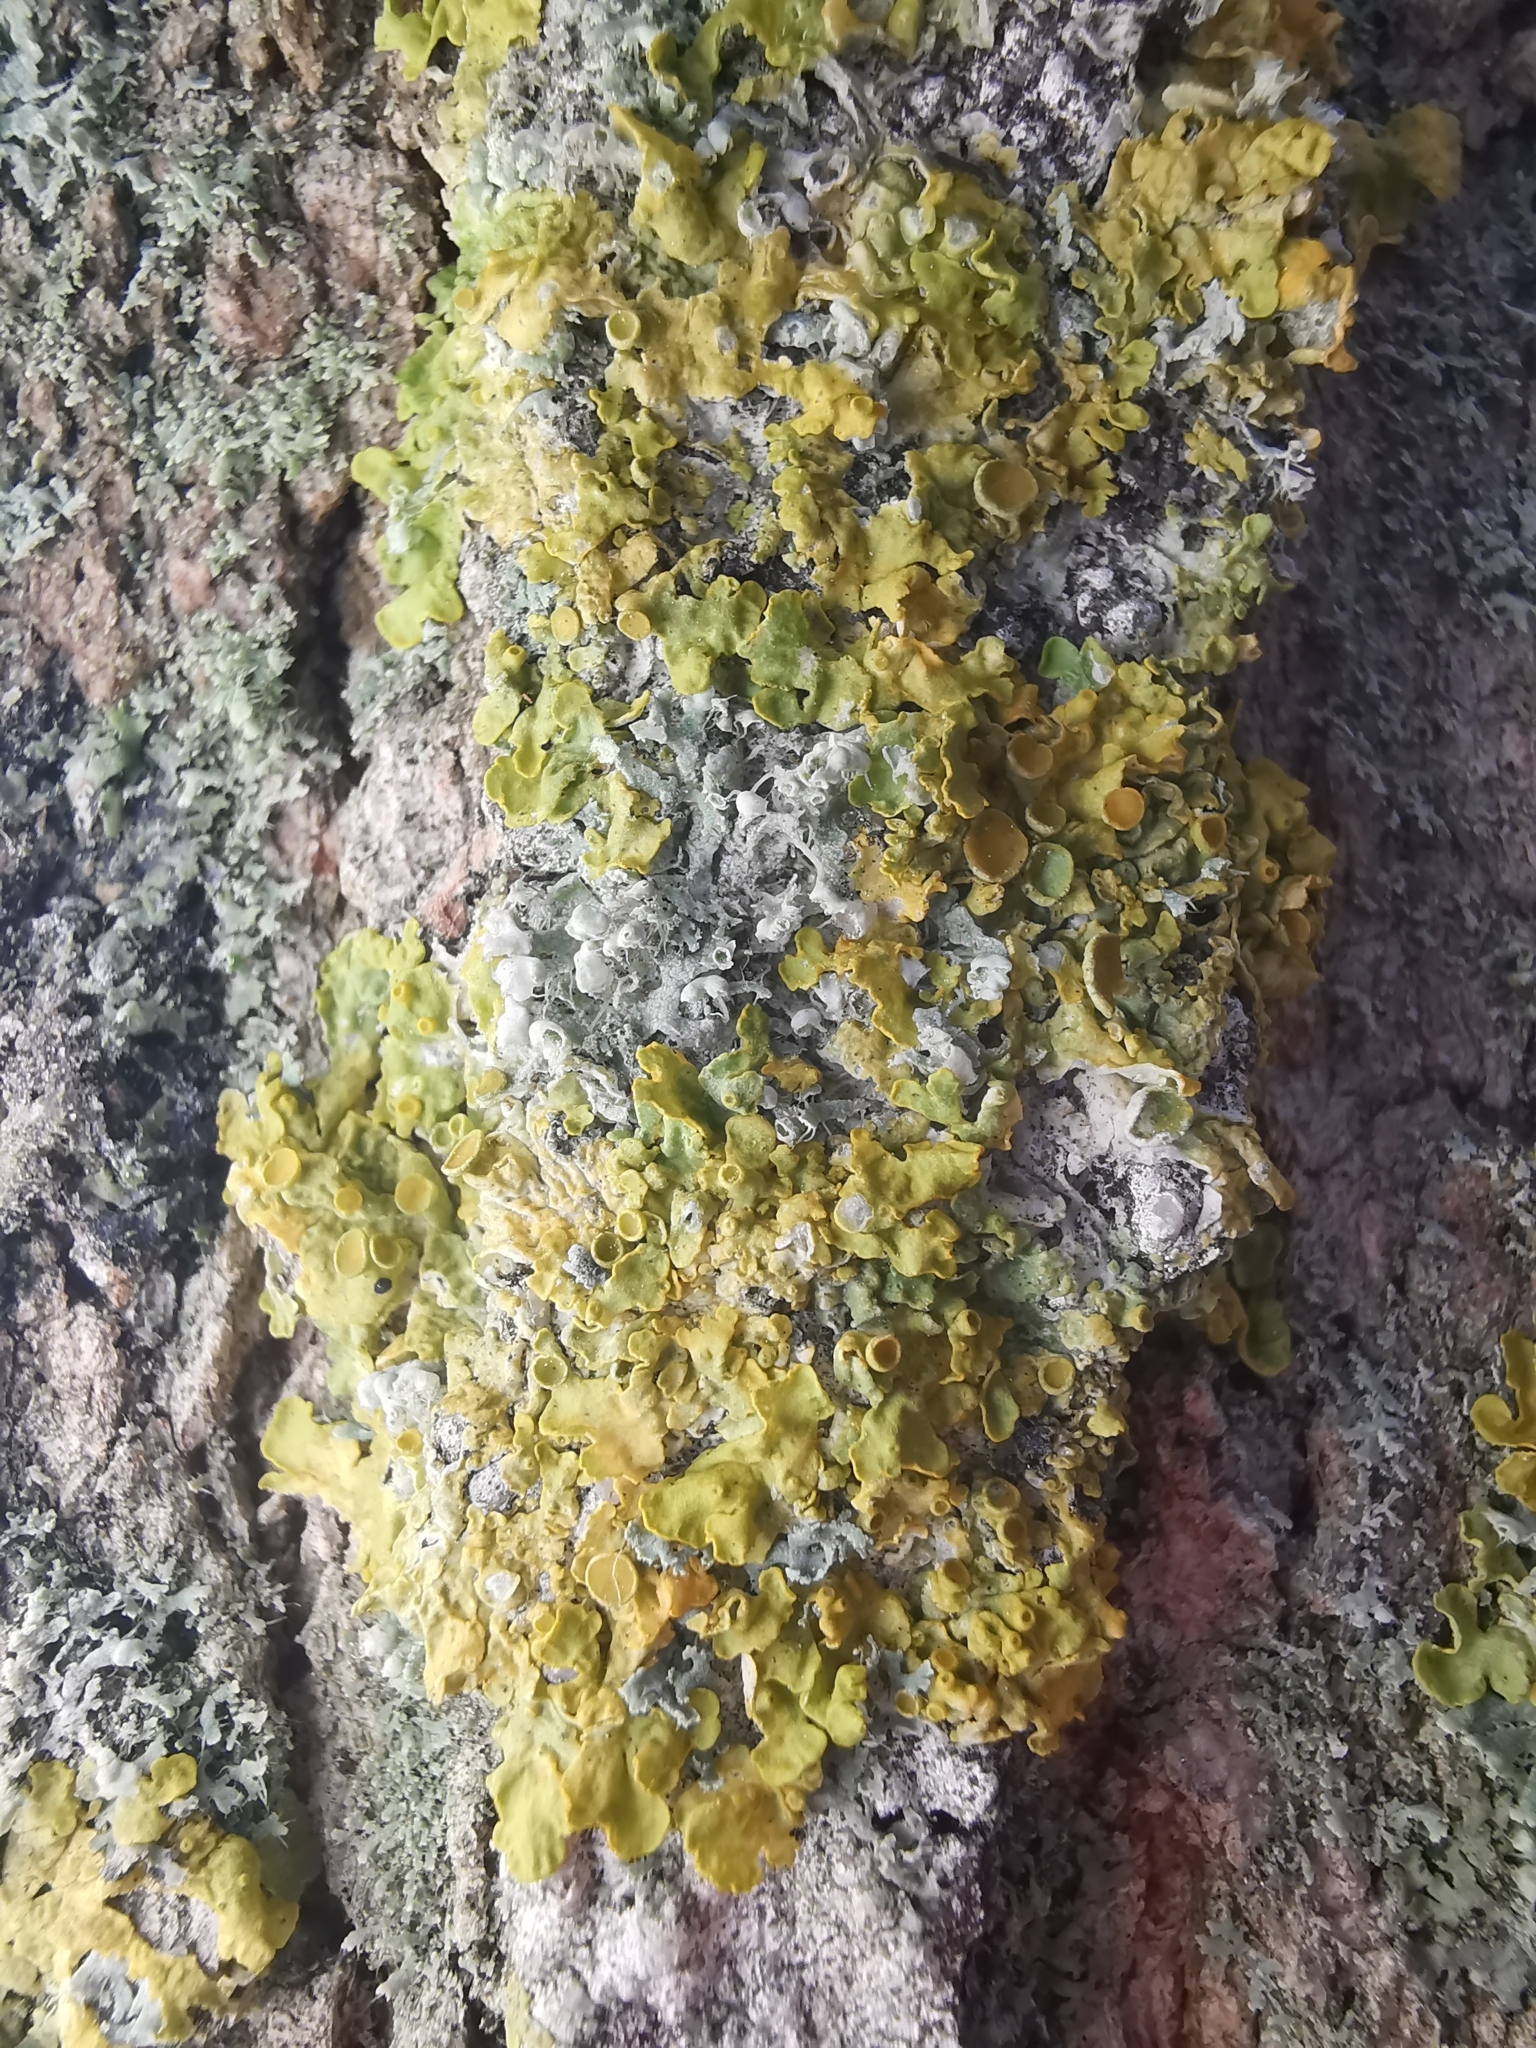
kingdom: Fungi
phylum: Ascomycota
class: Lecanoromycetes
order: Teloschistales
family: Teloschistaceae
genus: Xanthoria
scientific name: Xanthoria parietina
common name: Common orange lichen
